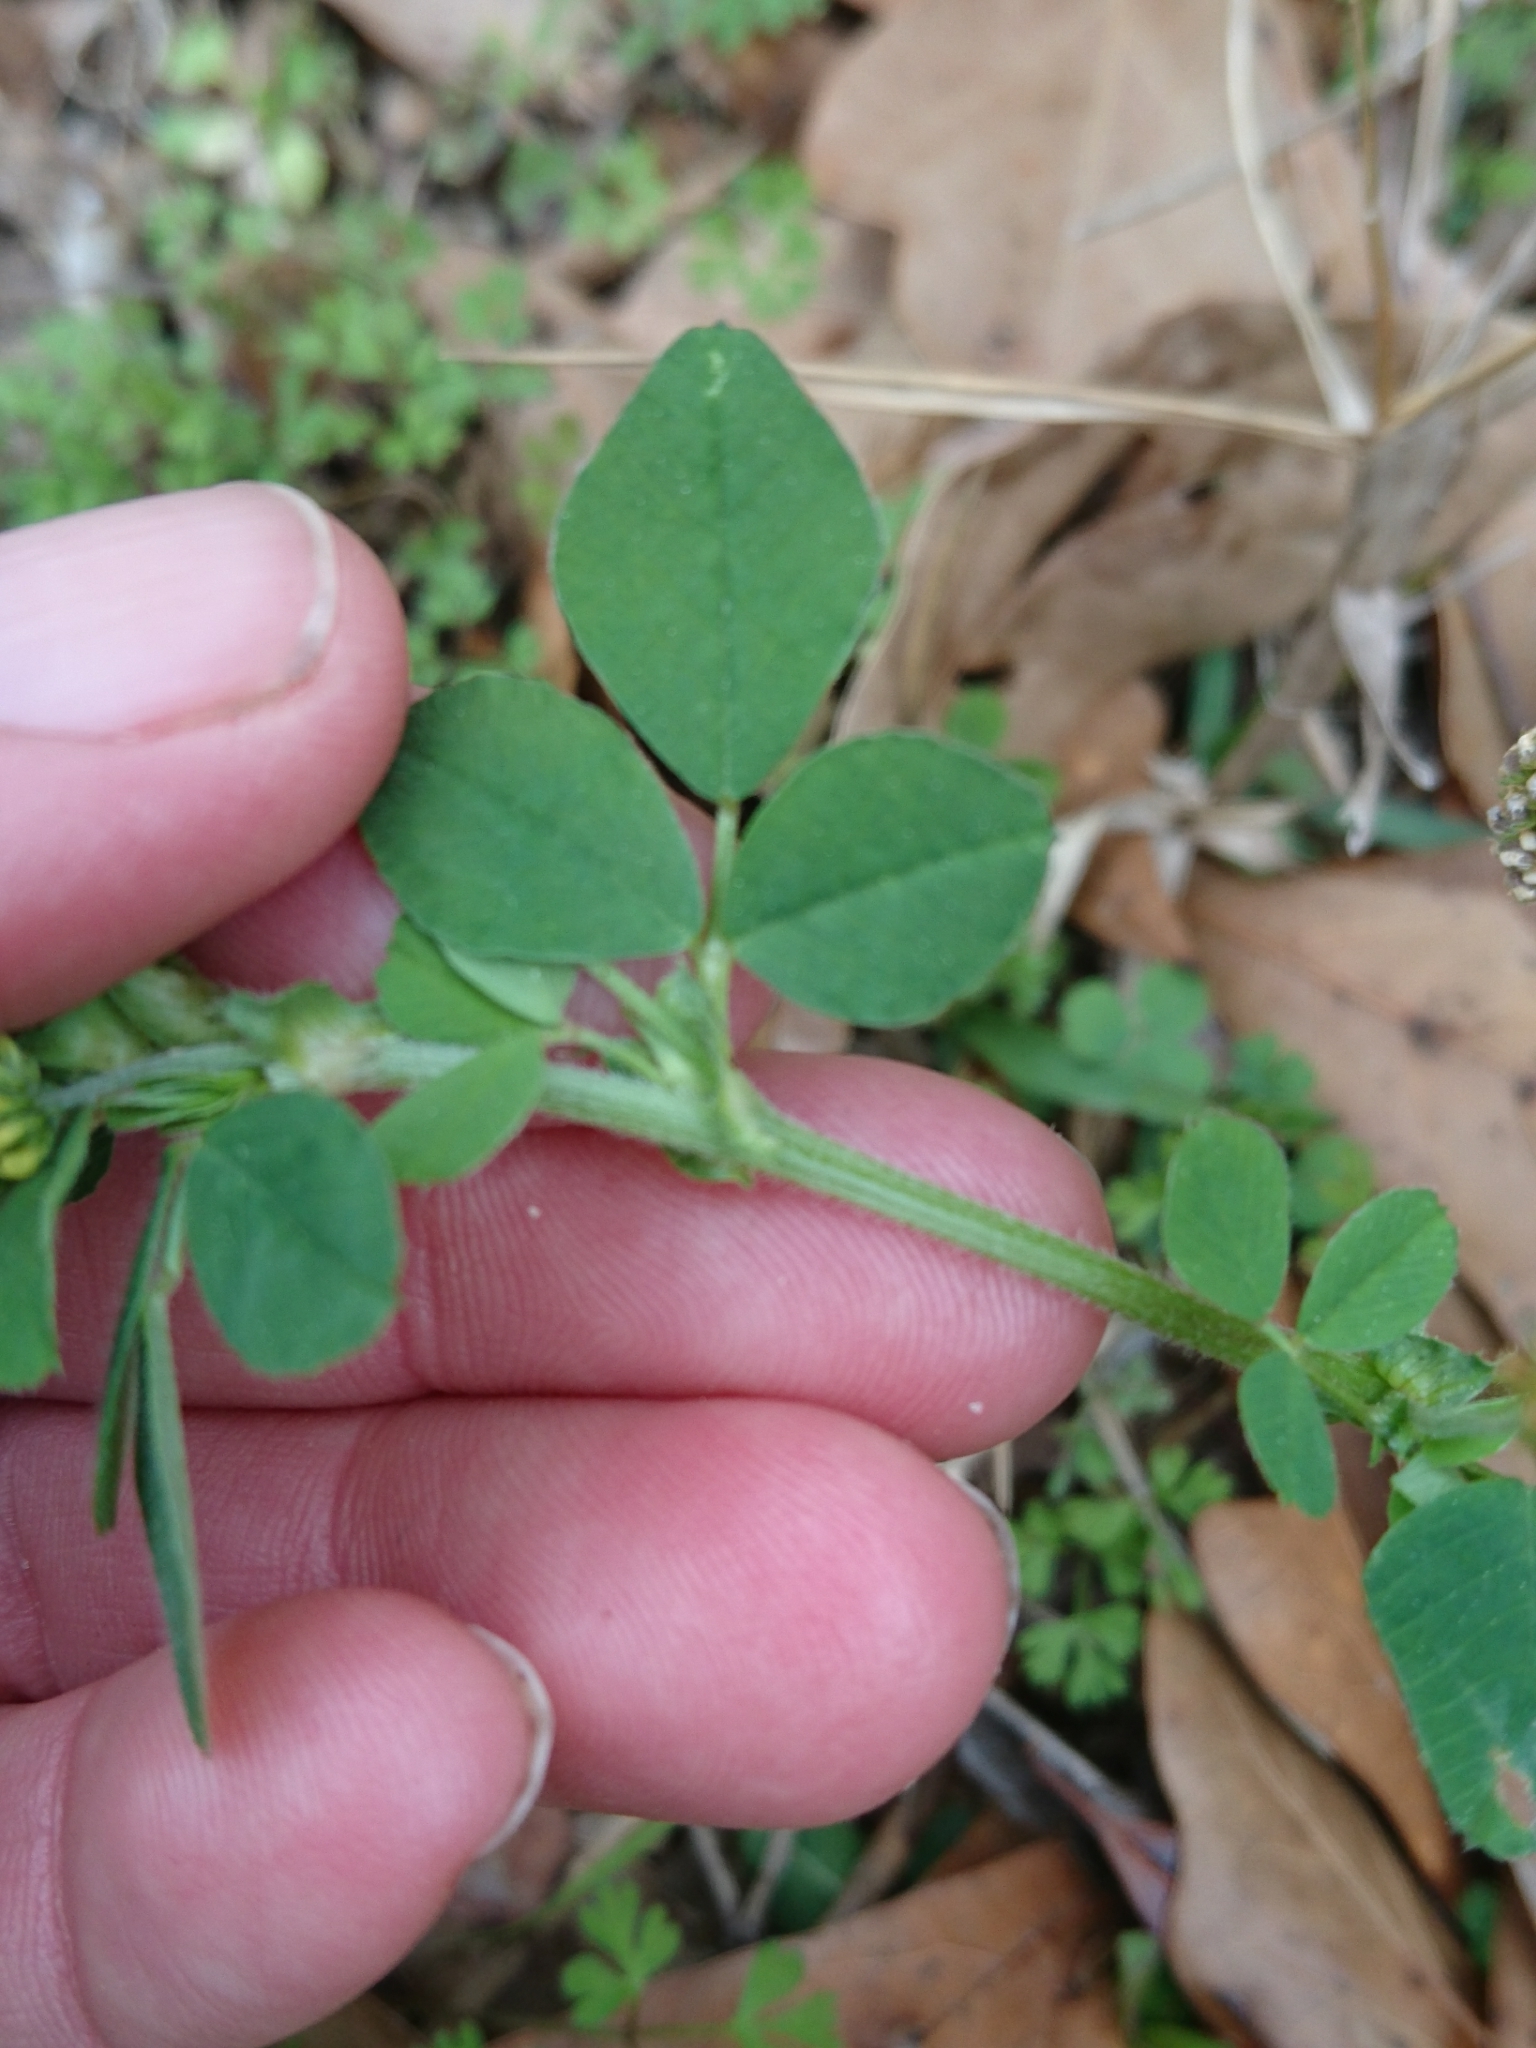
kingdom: Plantae
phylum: Tracheophyta
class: Magnoliopsida
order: Fabales
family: Fabaceae
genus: Medicago
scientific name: Medicago lupulina
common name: Black medick
